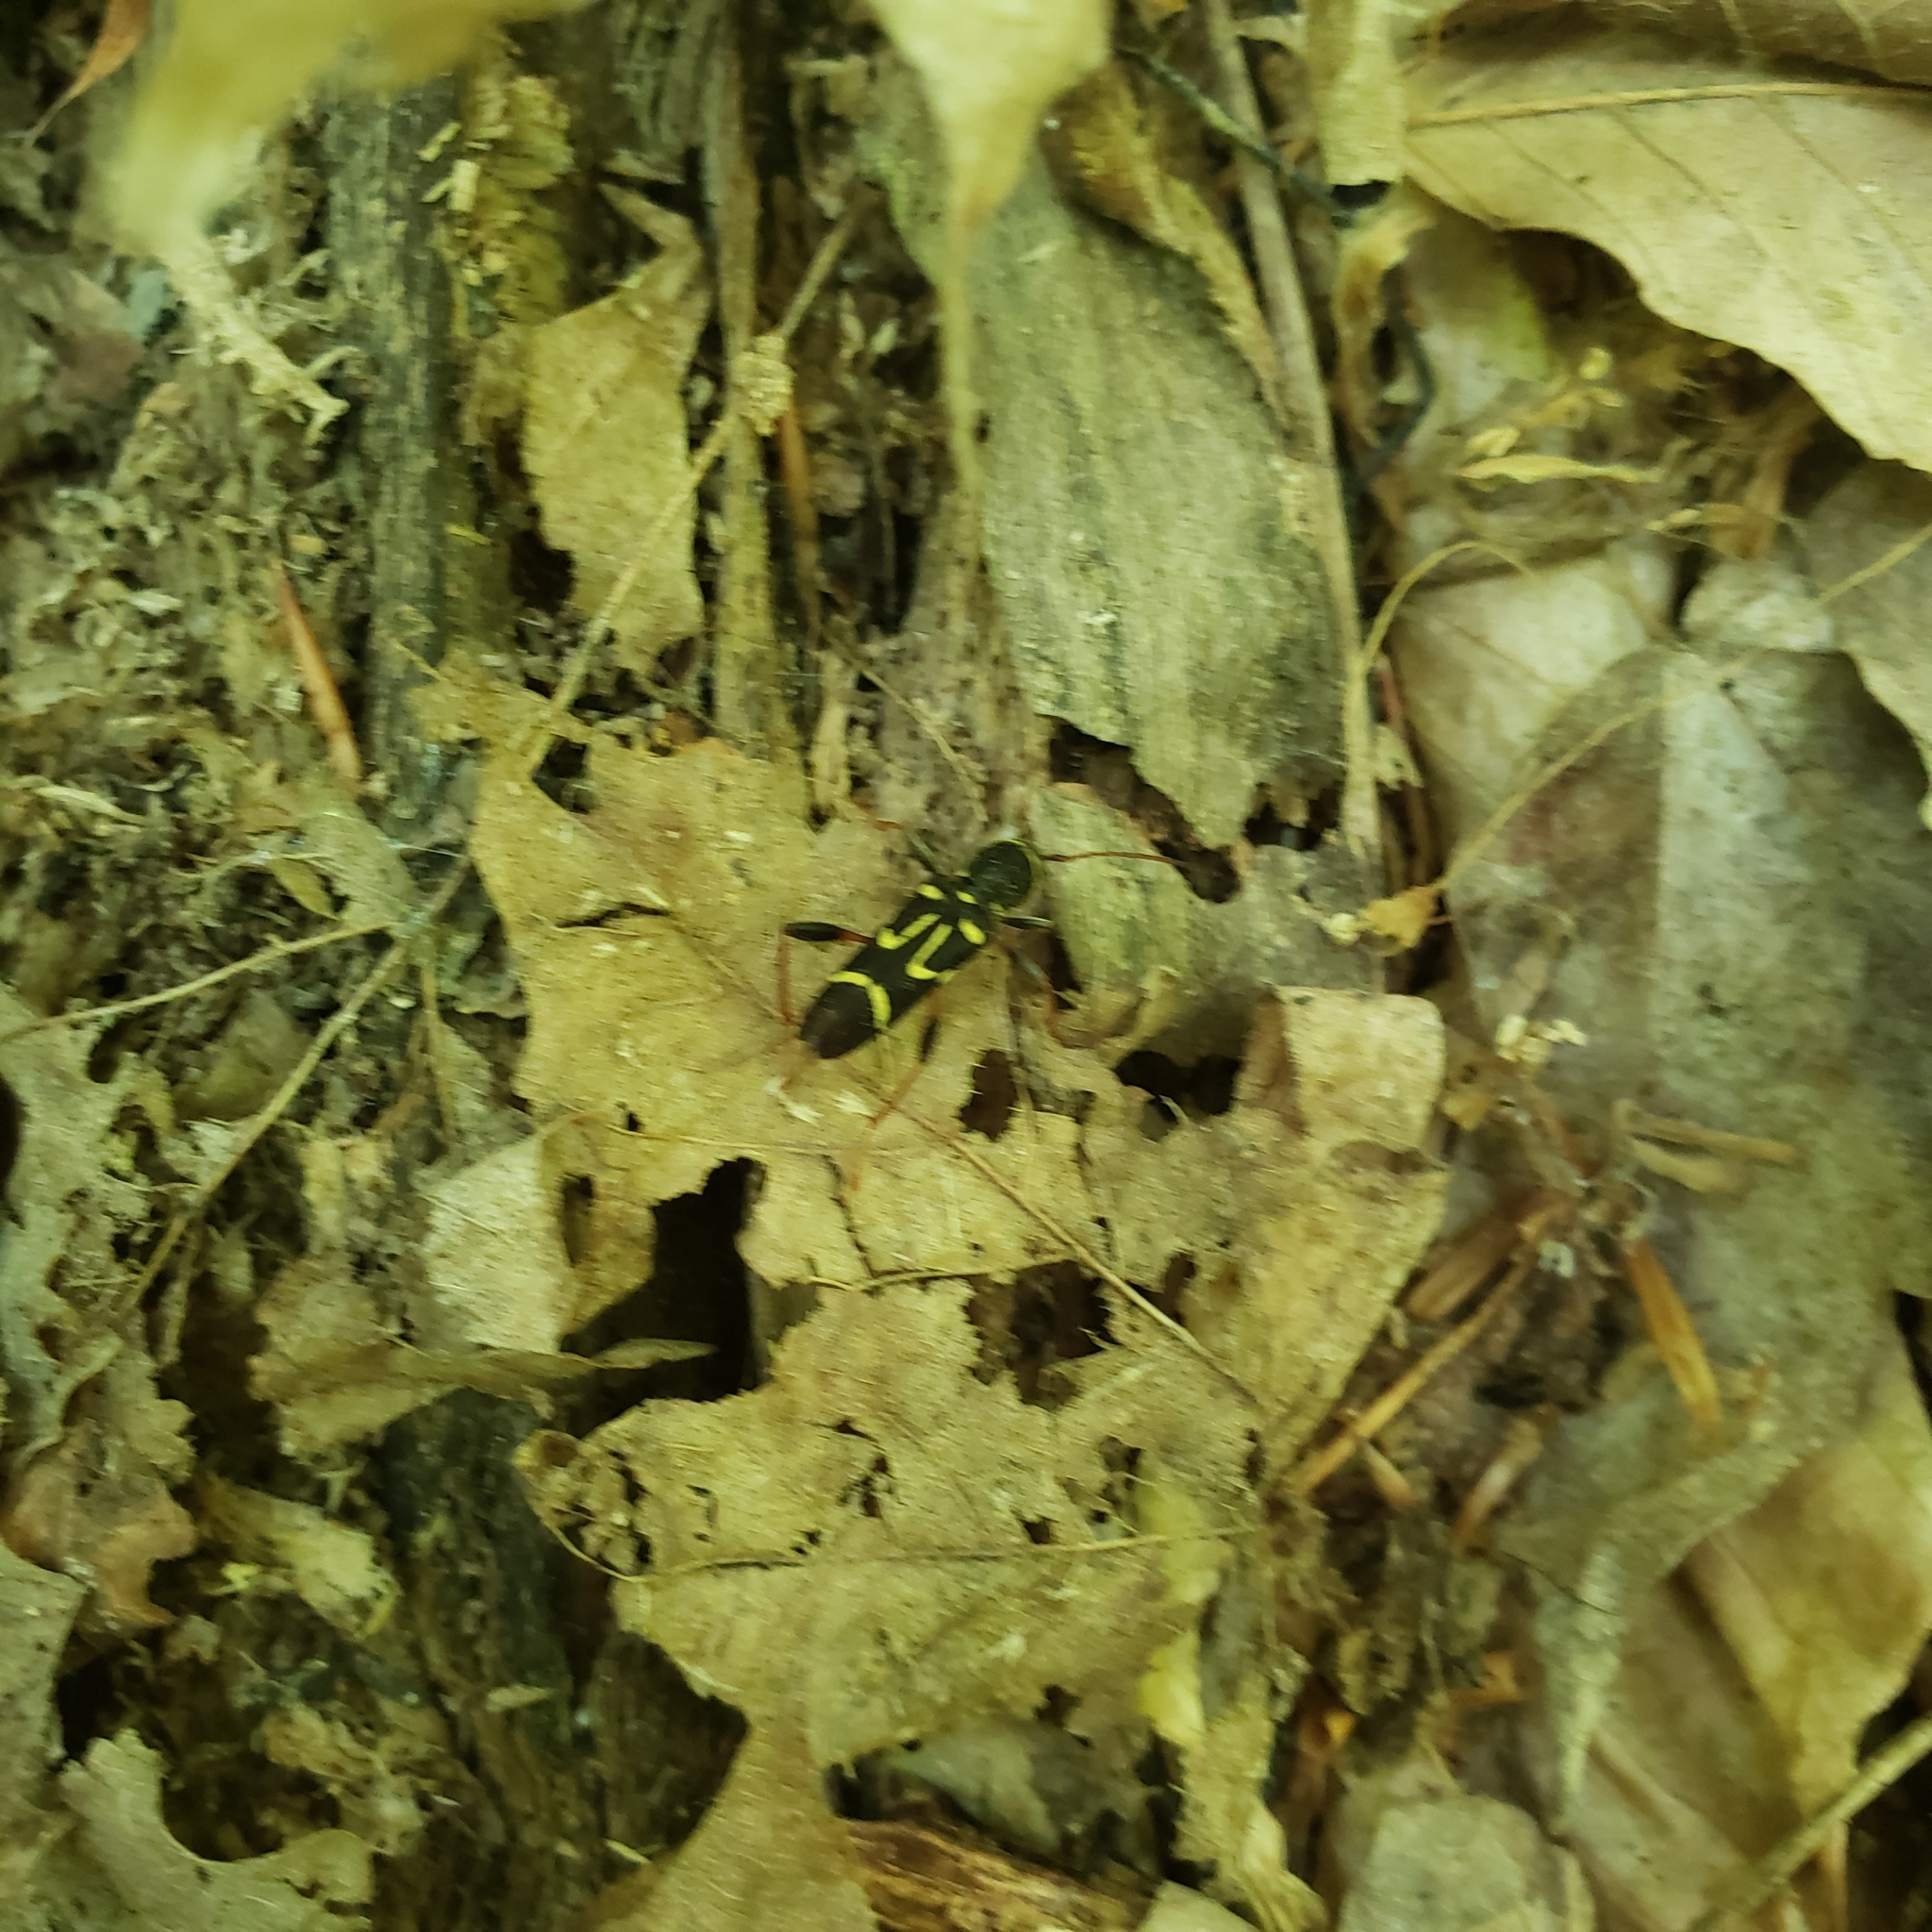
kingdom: Animalia
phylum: Arthropoda
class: Insecta
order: Coleoptera
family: Cerambycidae
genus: Clytus
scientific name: Clytus ruricola
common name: Round-necked longhorn beetle
